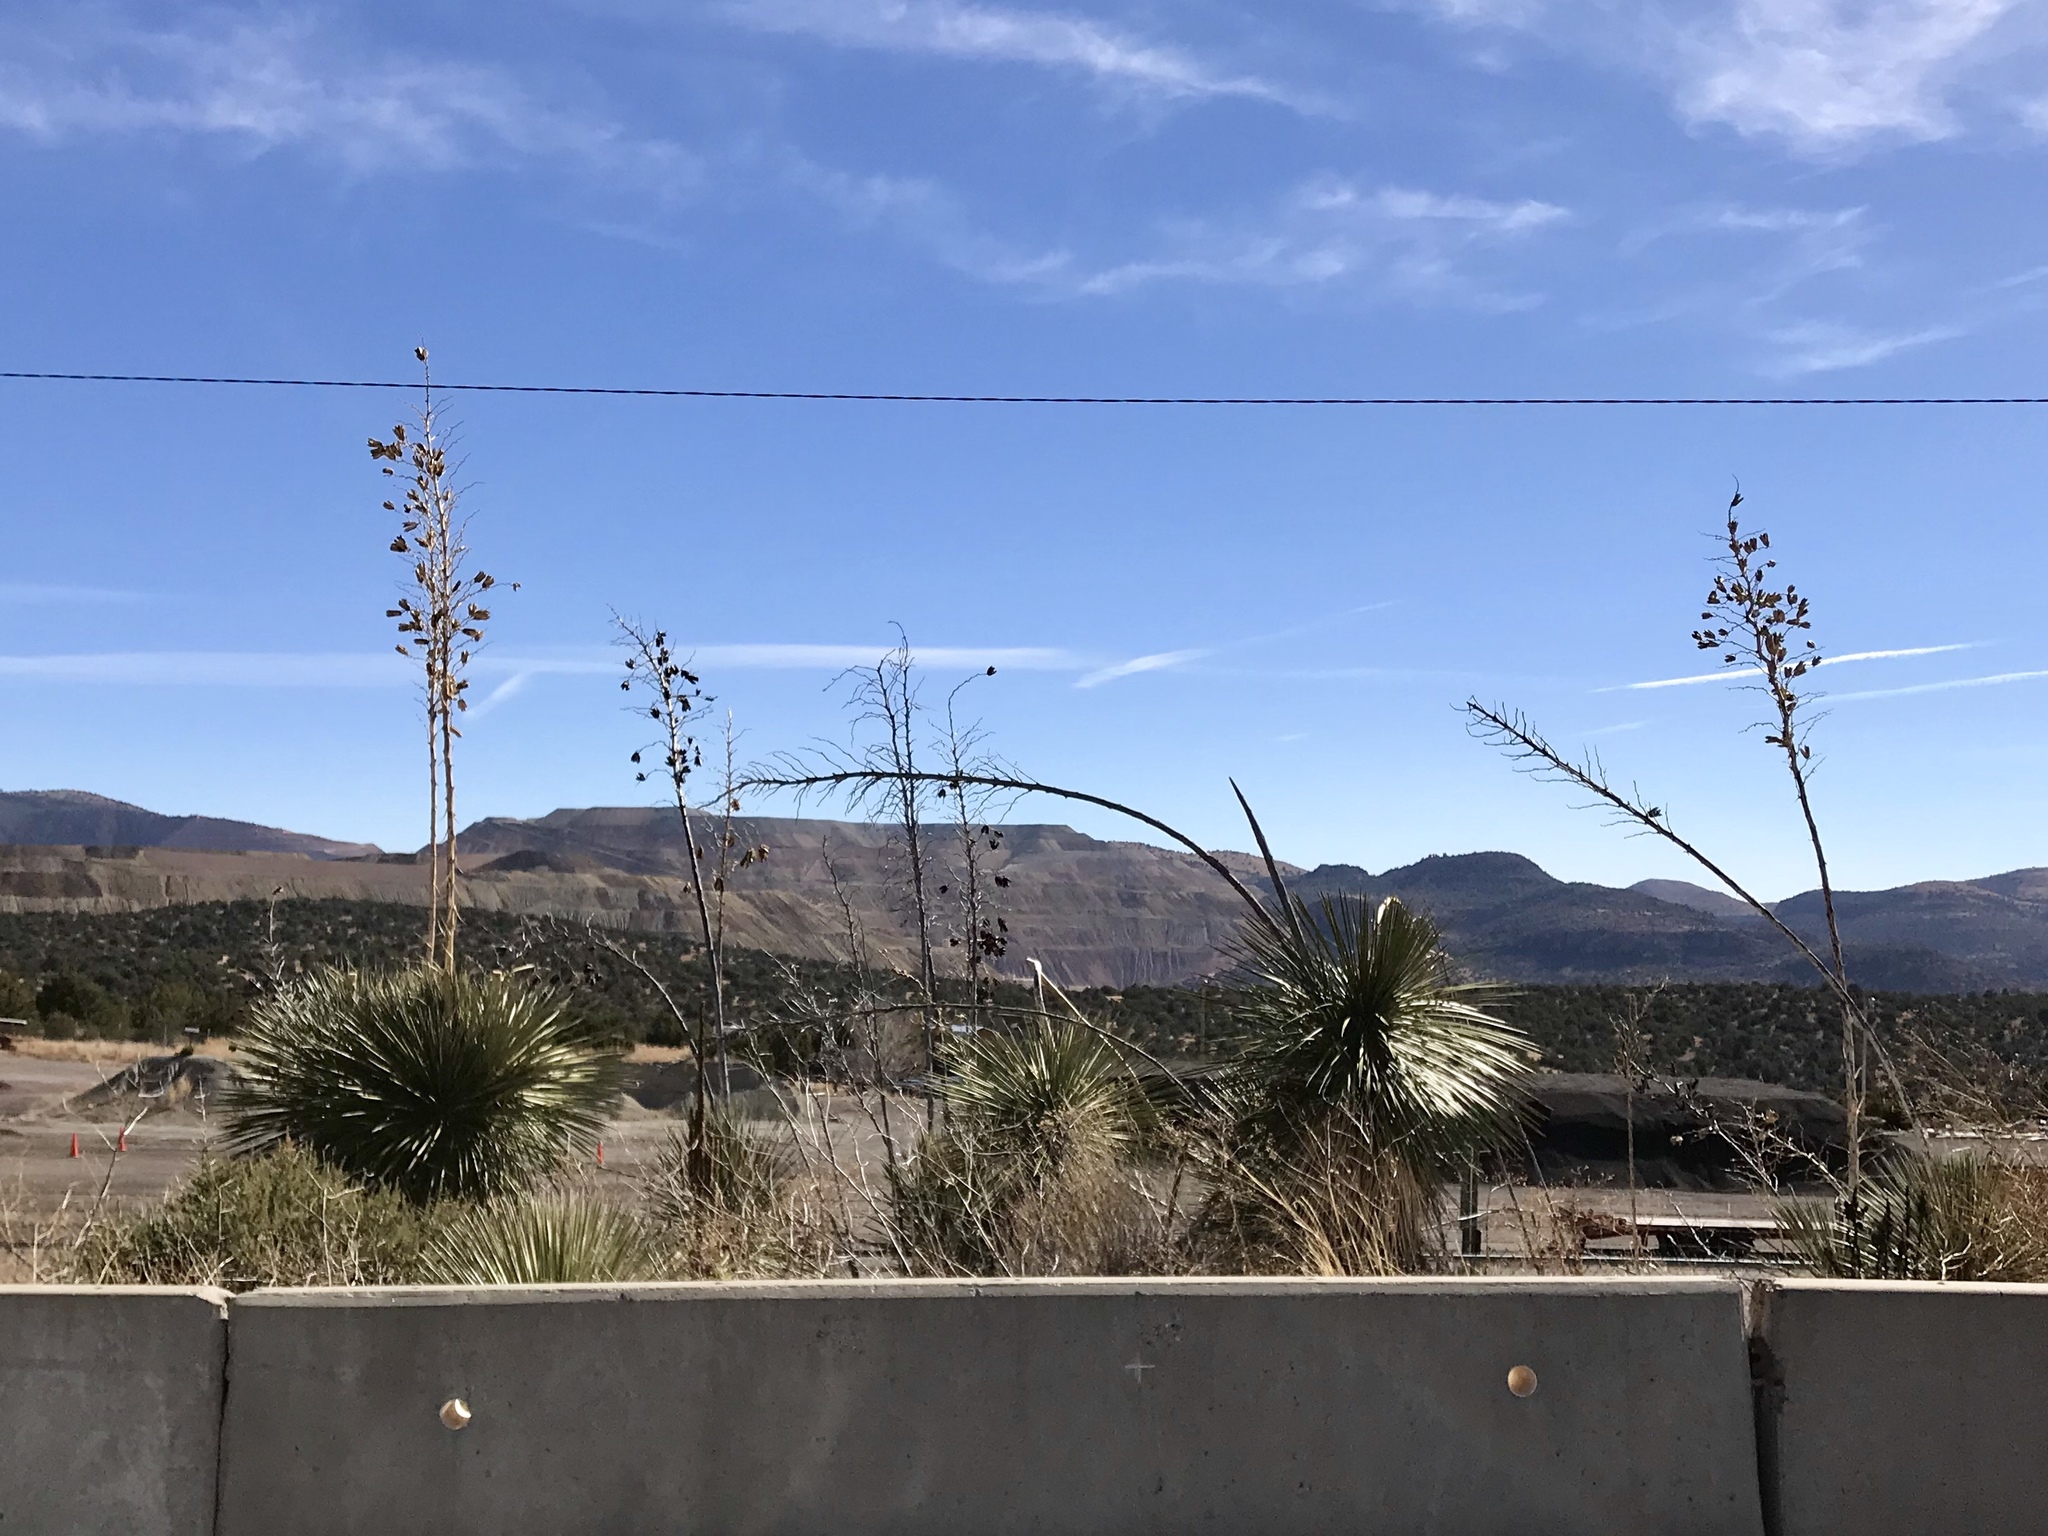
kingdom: Plantae
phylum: Tracheophyta
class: Liliopsida
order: Asparagales
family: Asparagaceae
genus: Yucca
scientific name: Yucca elata
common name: Palmella
